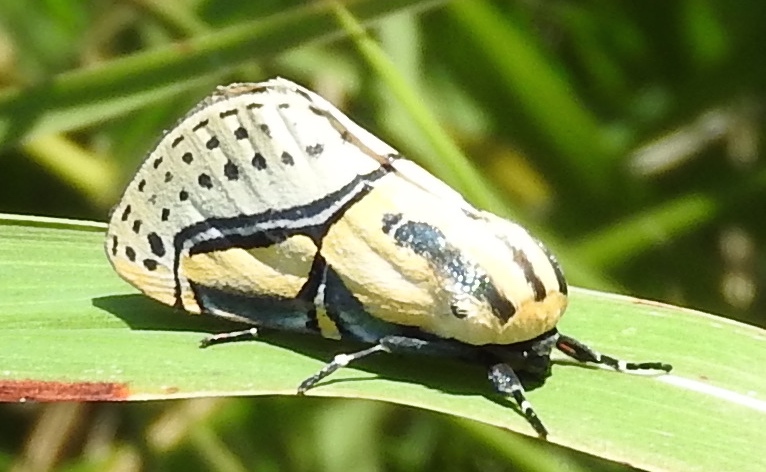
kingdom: Animalia
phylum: Arthropoda
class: Insecta
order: Lepidoptera
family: Erebidae
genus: Diphthera
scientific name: Diphthera festiva
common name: Hieroglyphic moth
